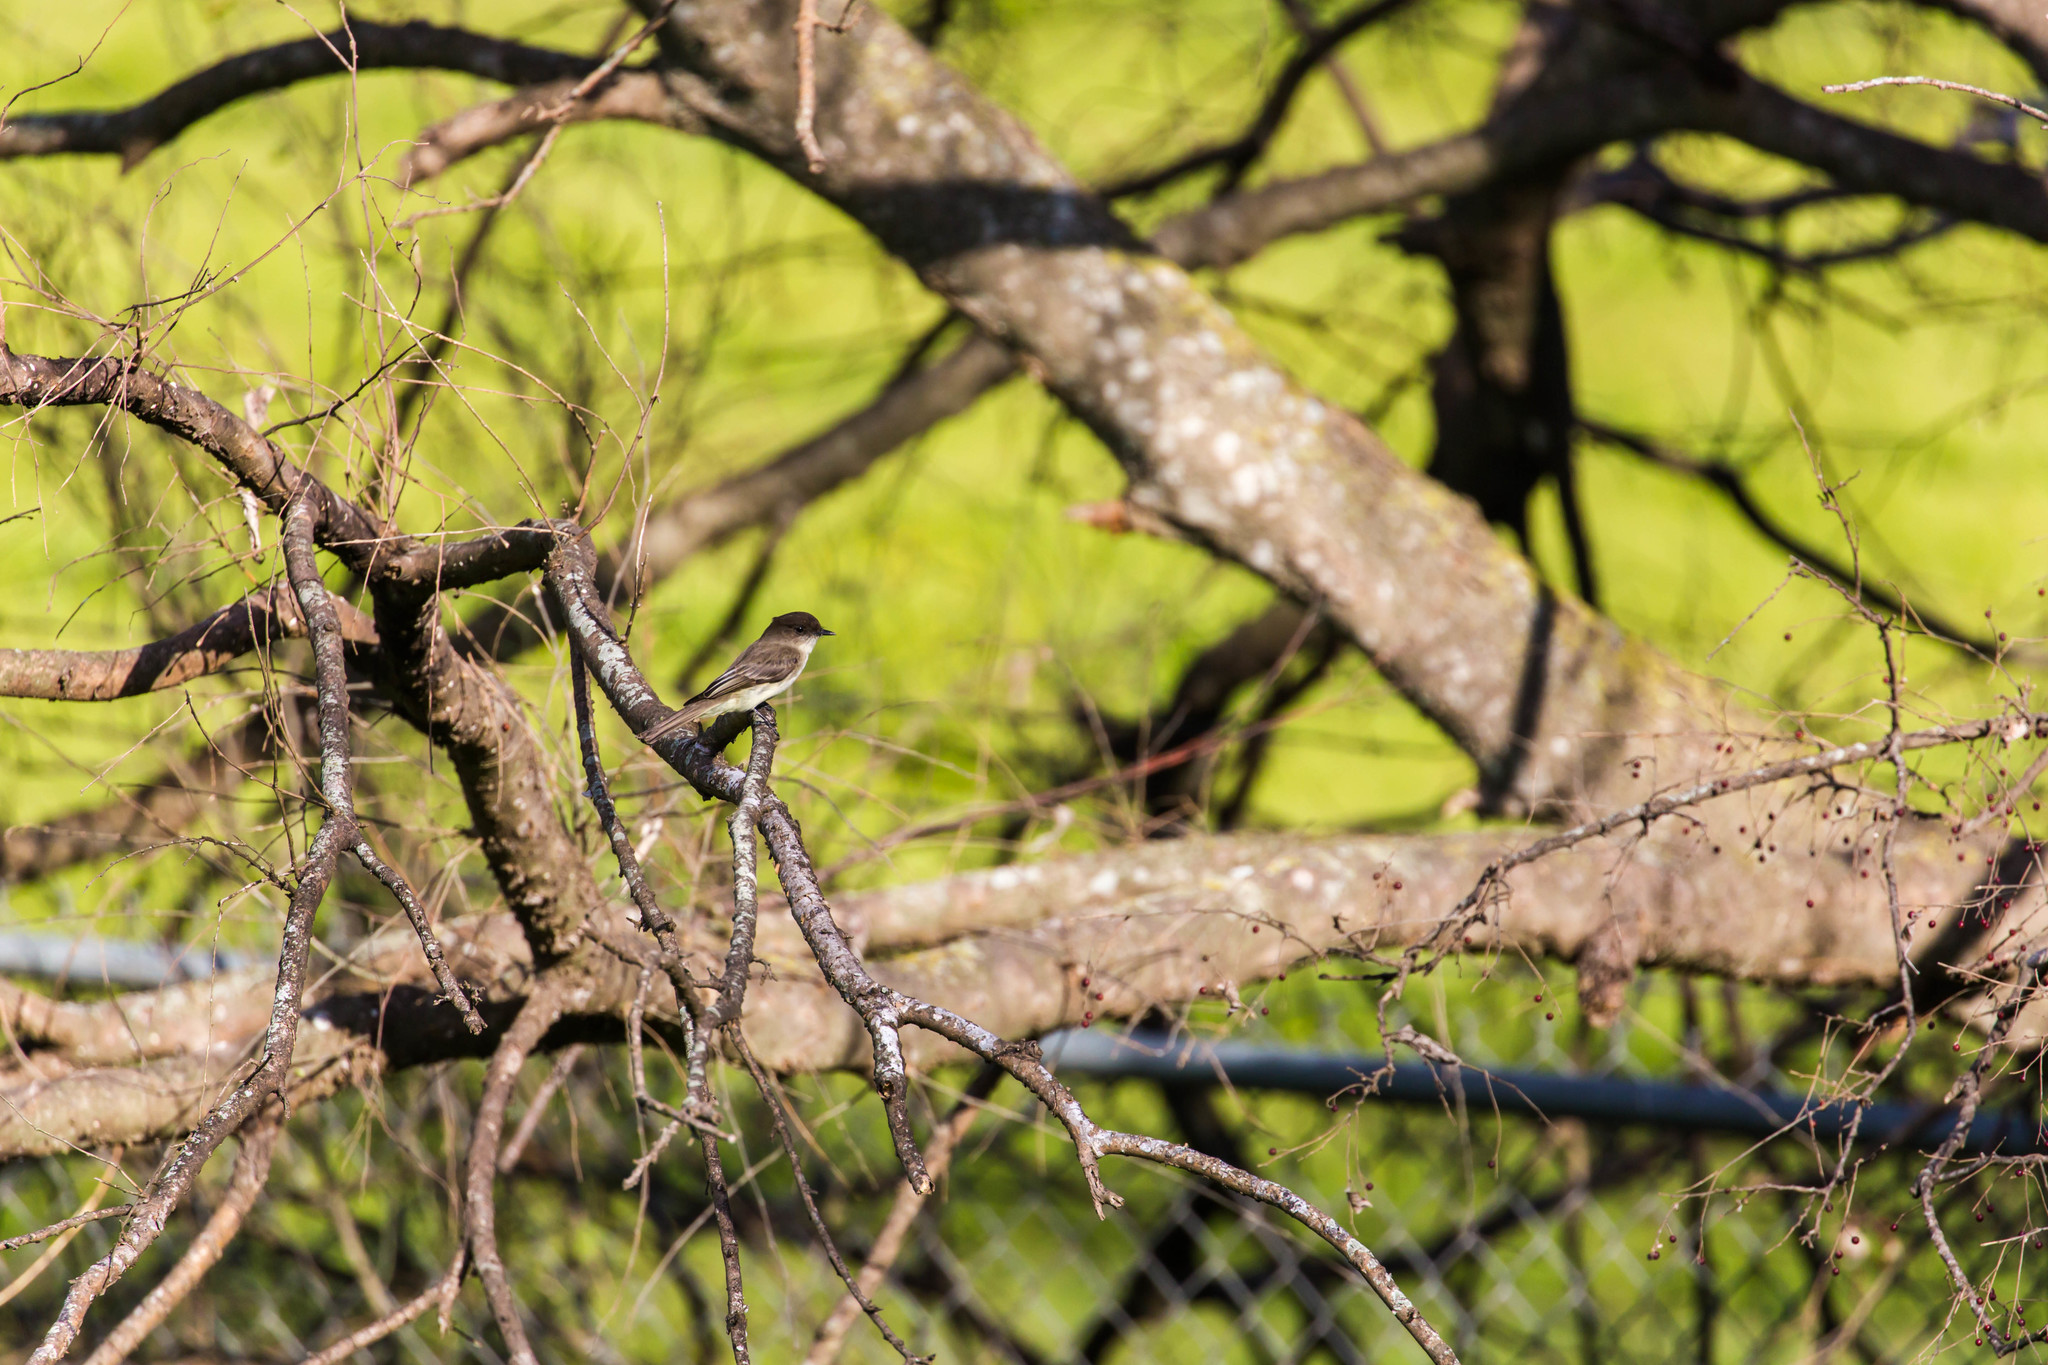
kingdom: Animalia
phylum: Chordata
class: Aves
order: Passeriformes
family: Tyrannidae
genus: Sayornis
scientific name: Sayornis phoebe
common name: Eastern phoebe
